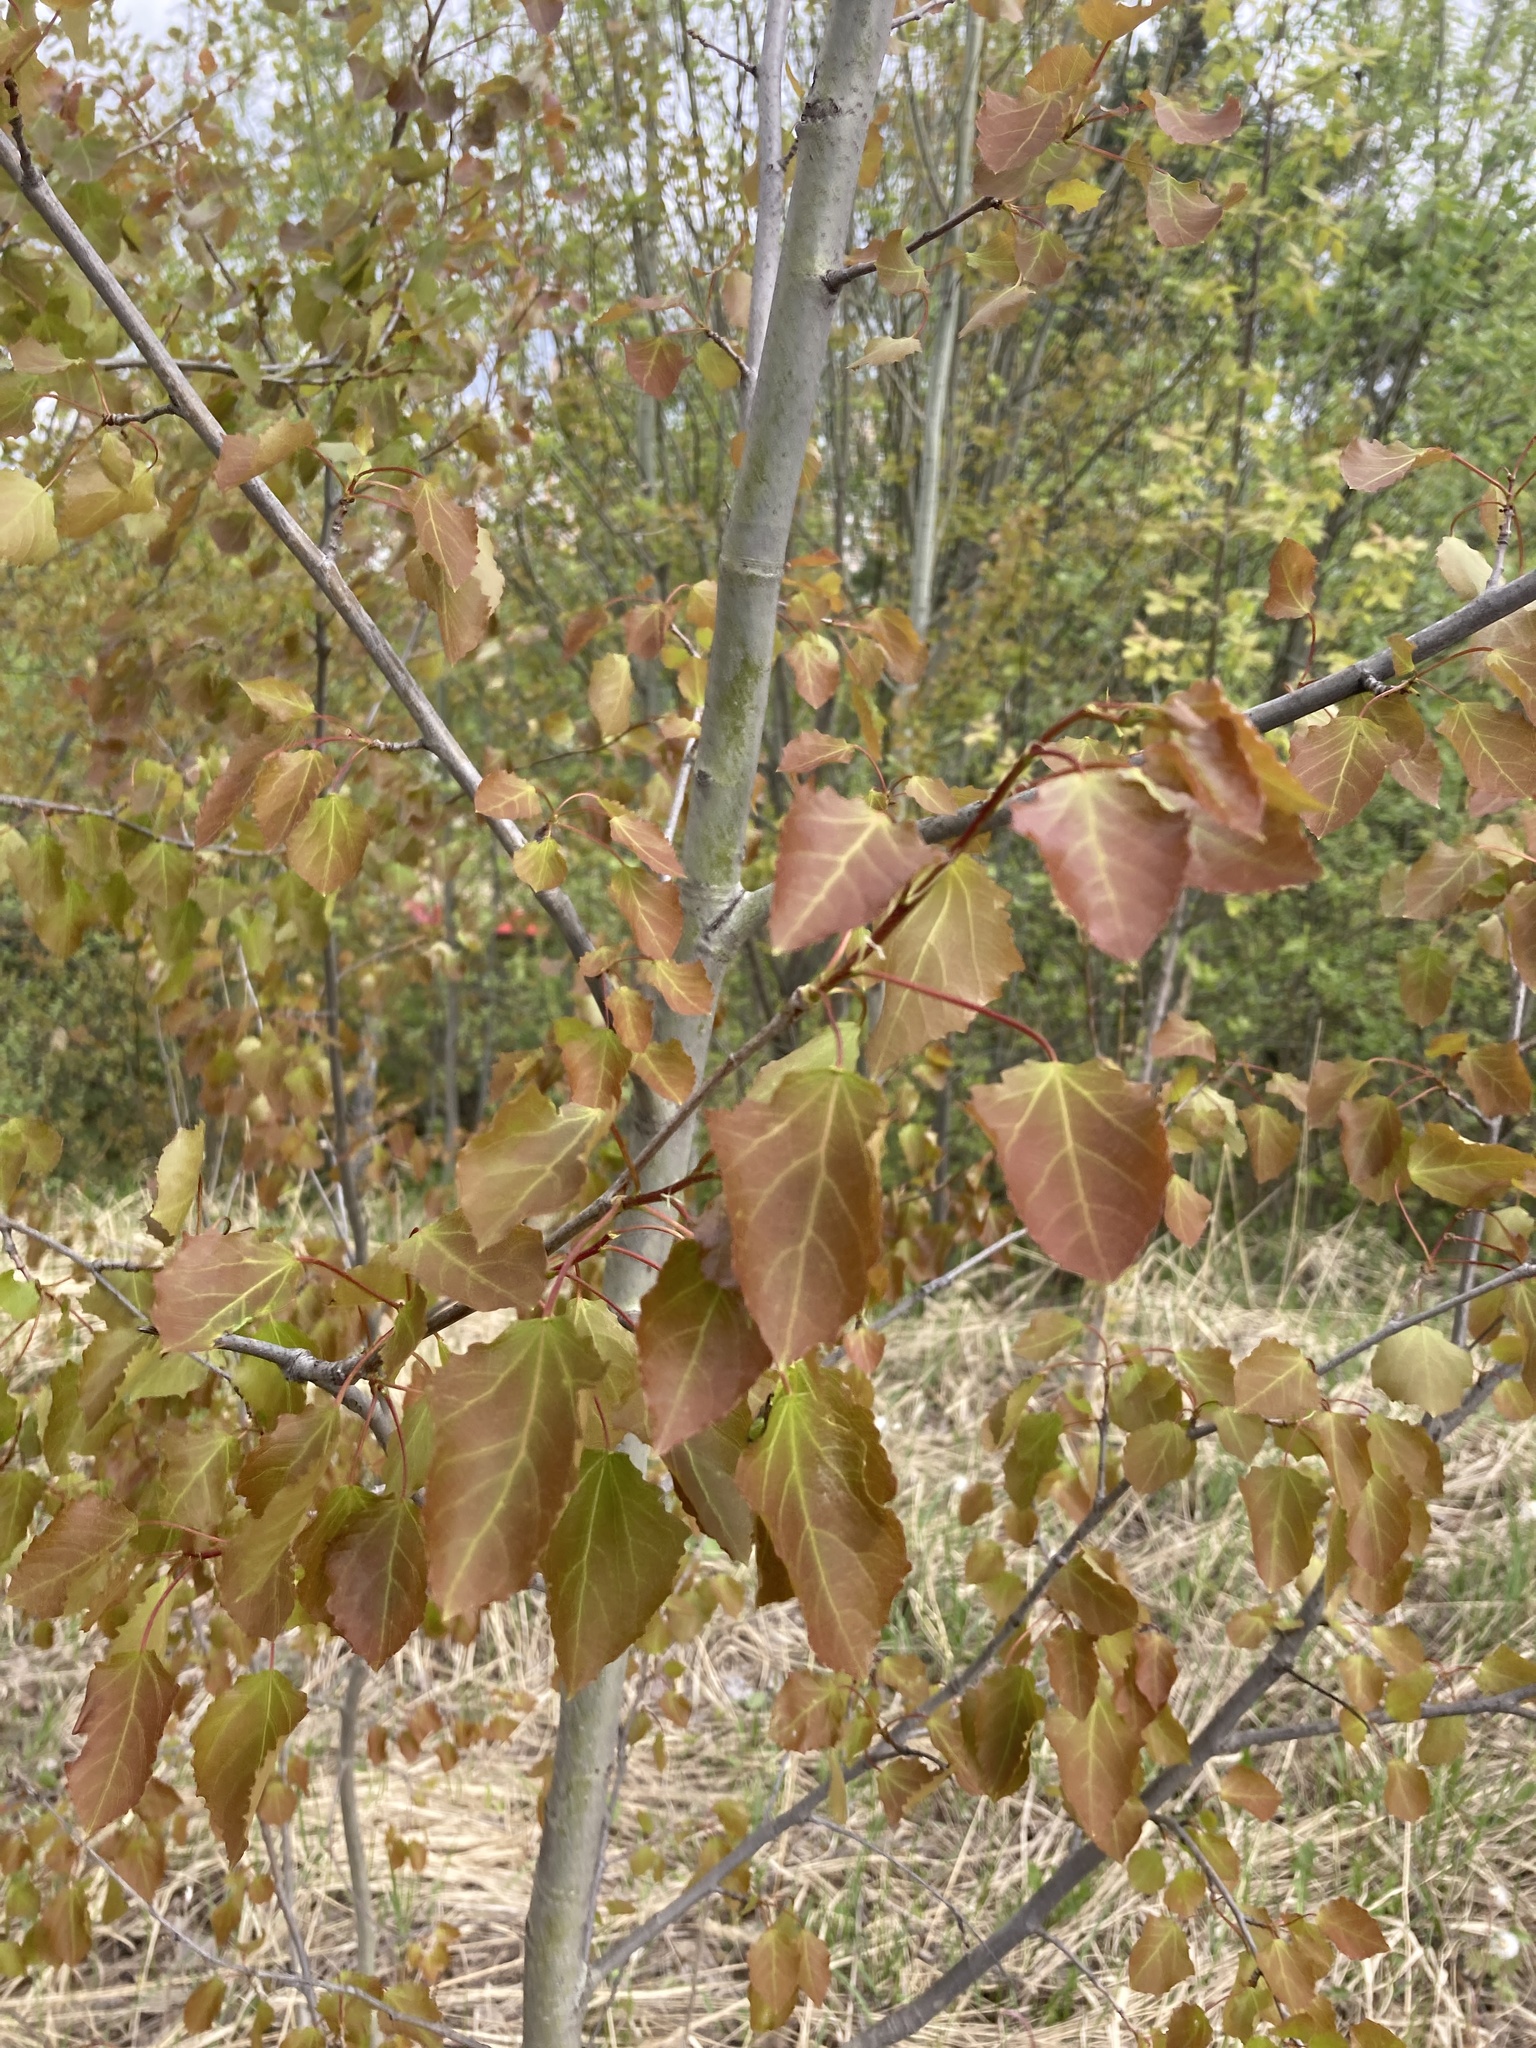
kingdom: Plantae
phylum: Tracheophyta
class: Magnoliopsida
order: Malpighiales
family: Salicaceae
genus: Populus
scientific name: Populus tremula
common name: European aspen
